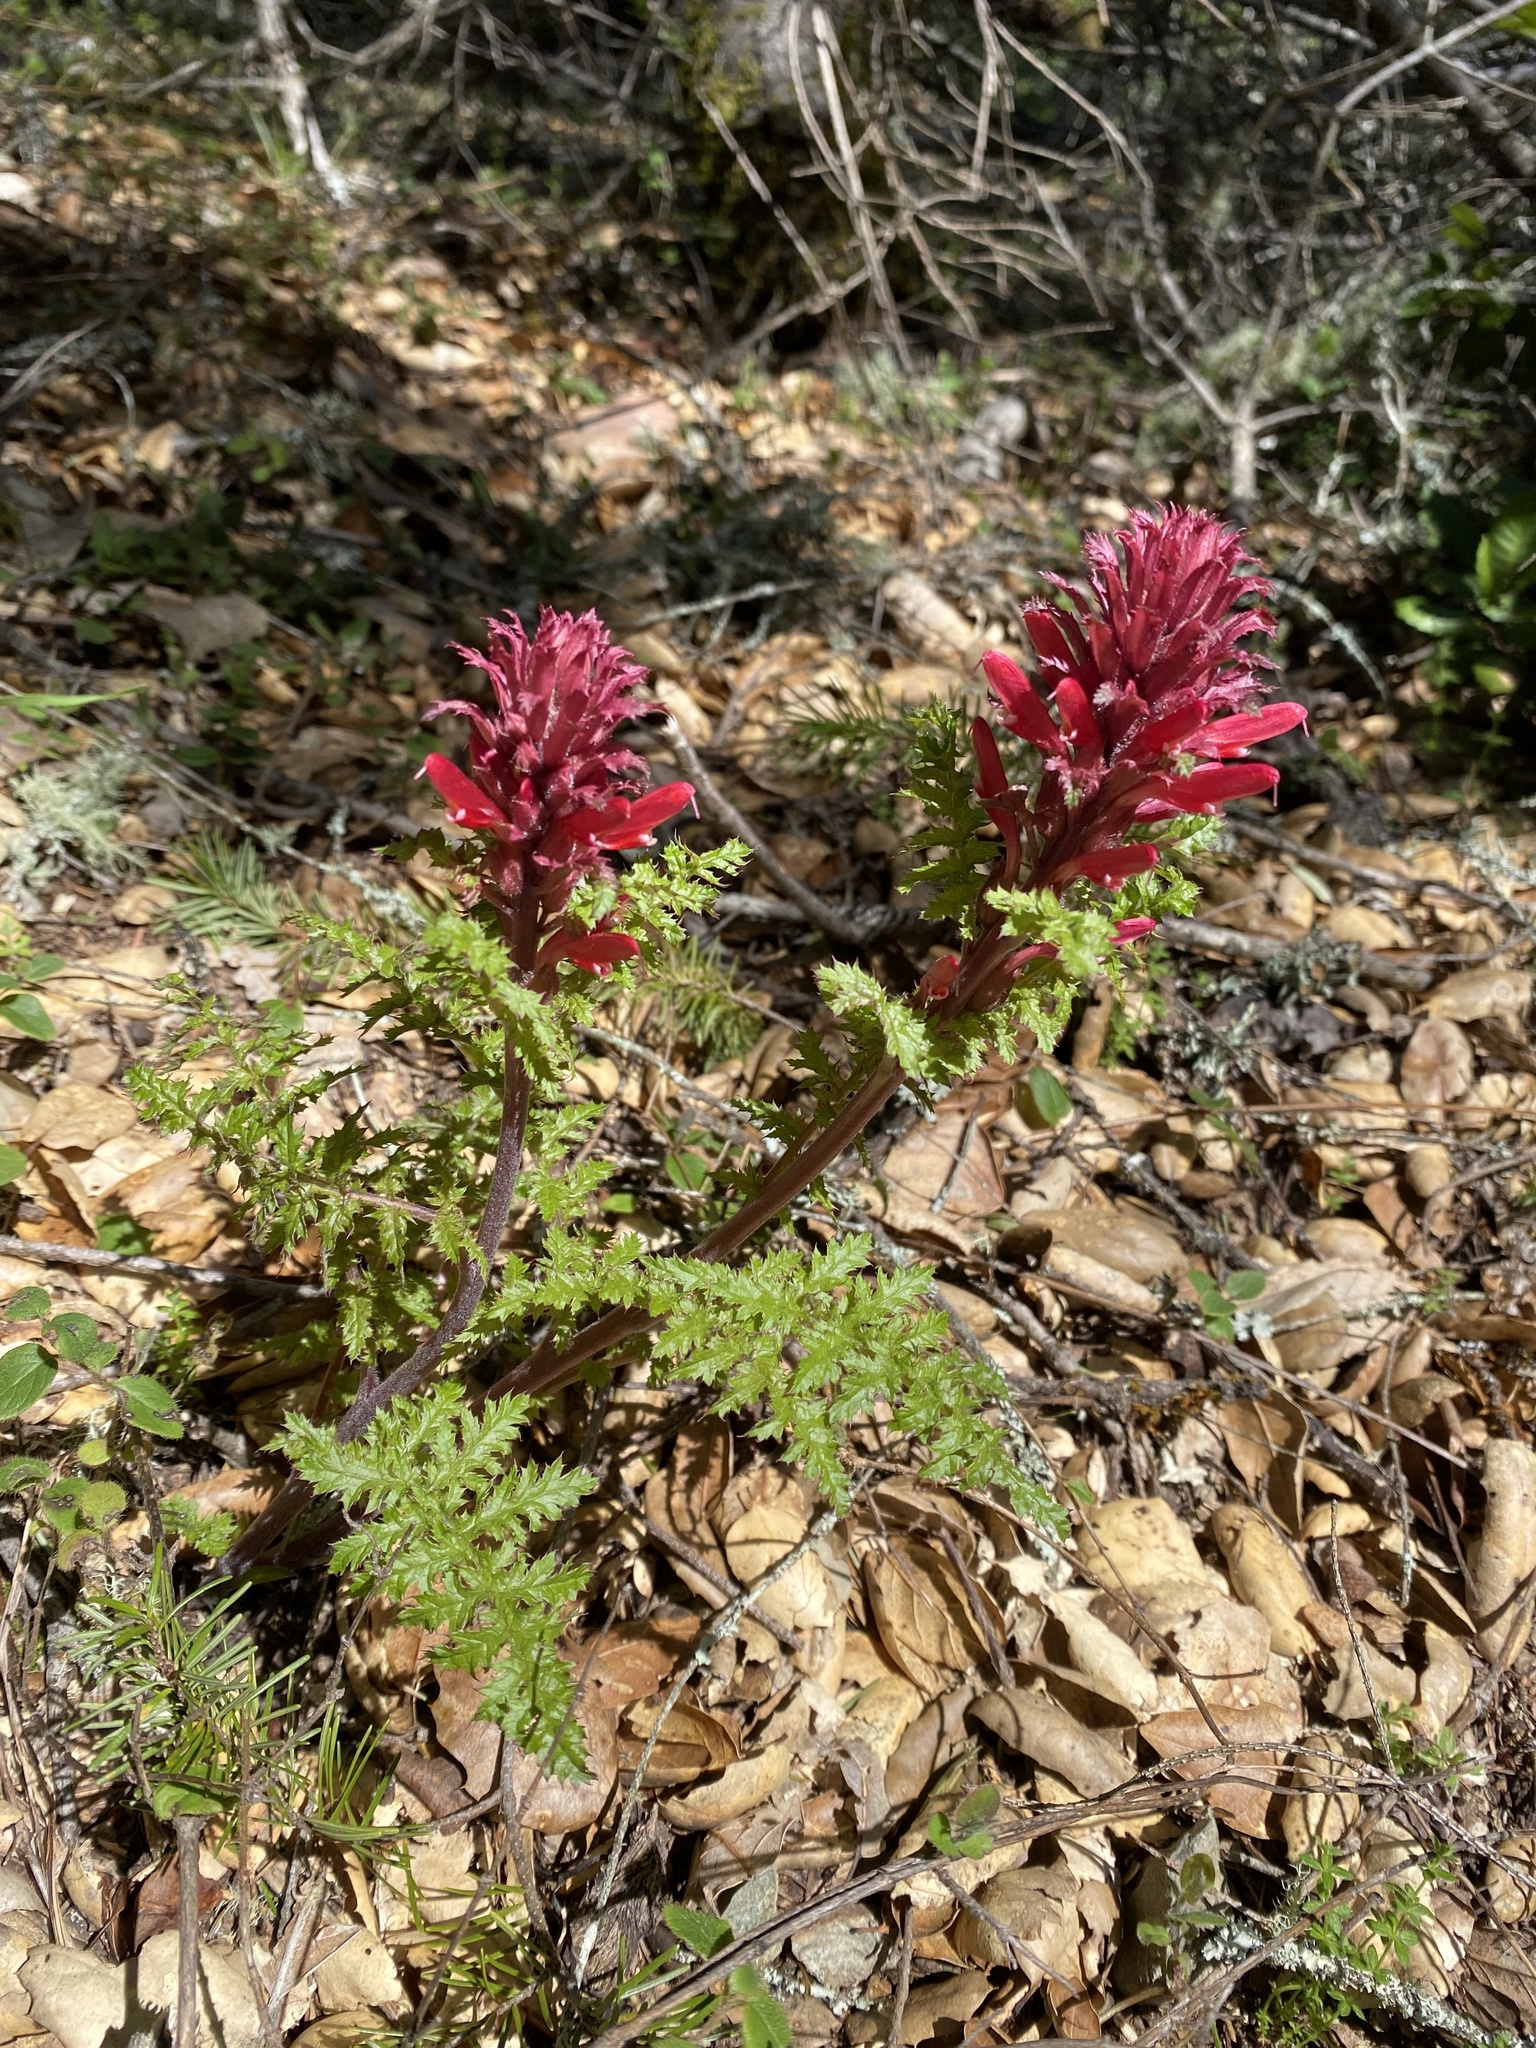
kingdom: Plantae
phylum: Tracheophyta
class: Magnoliopsida
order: Lamiales
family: Orobanchaceae
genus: Pedicularis
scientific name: Pedicularis densiflora
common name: Indian warrior
